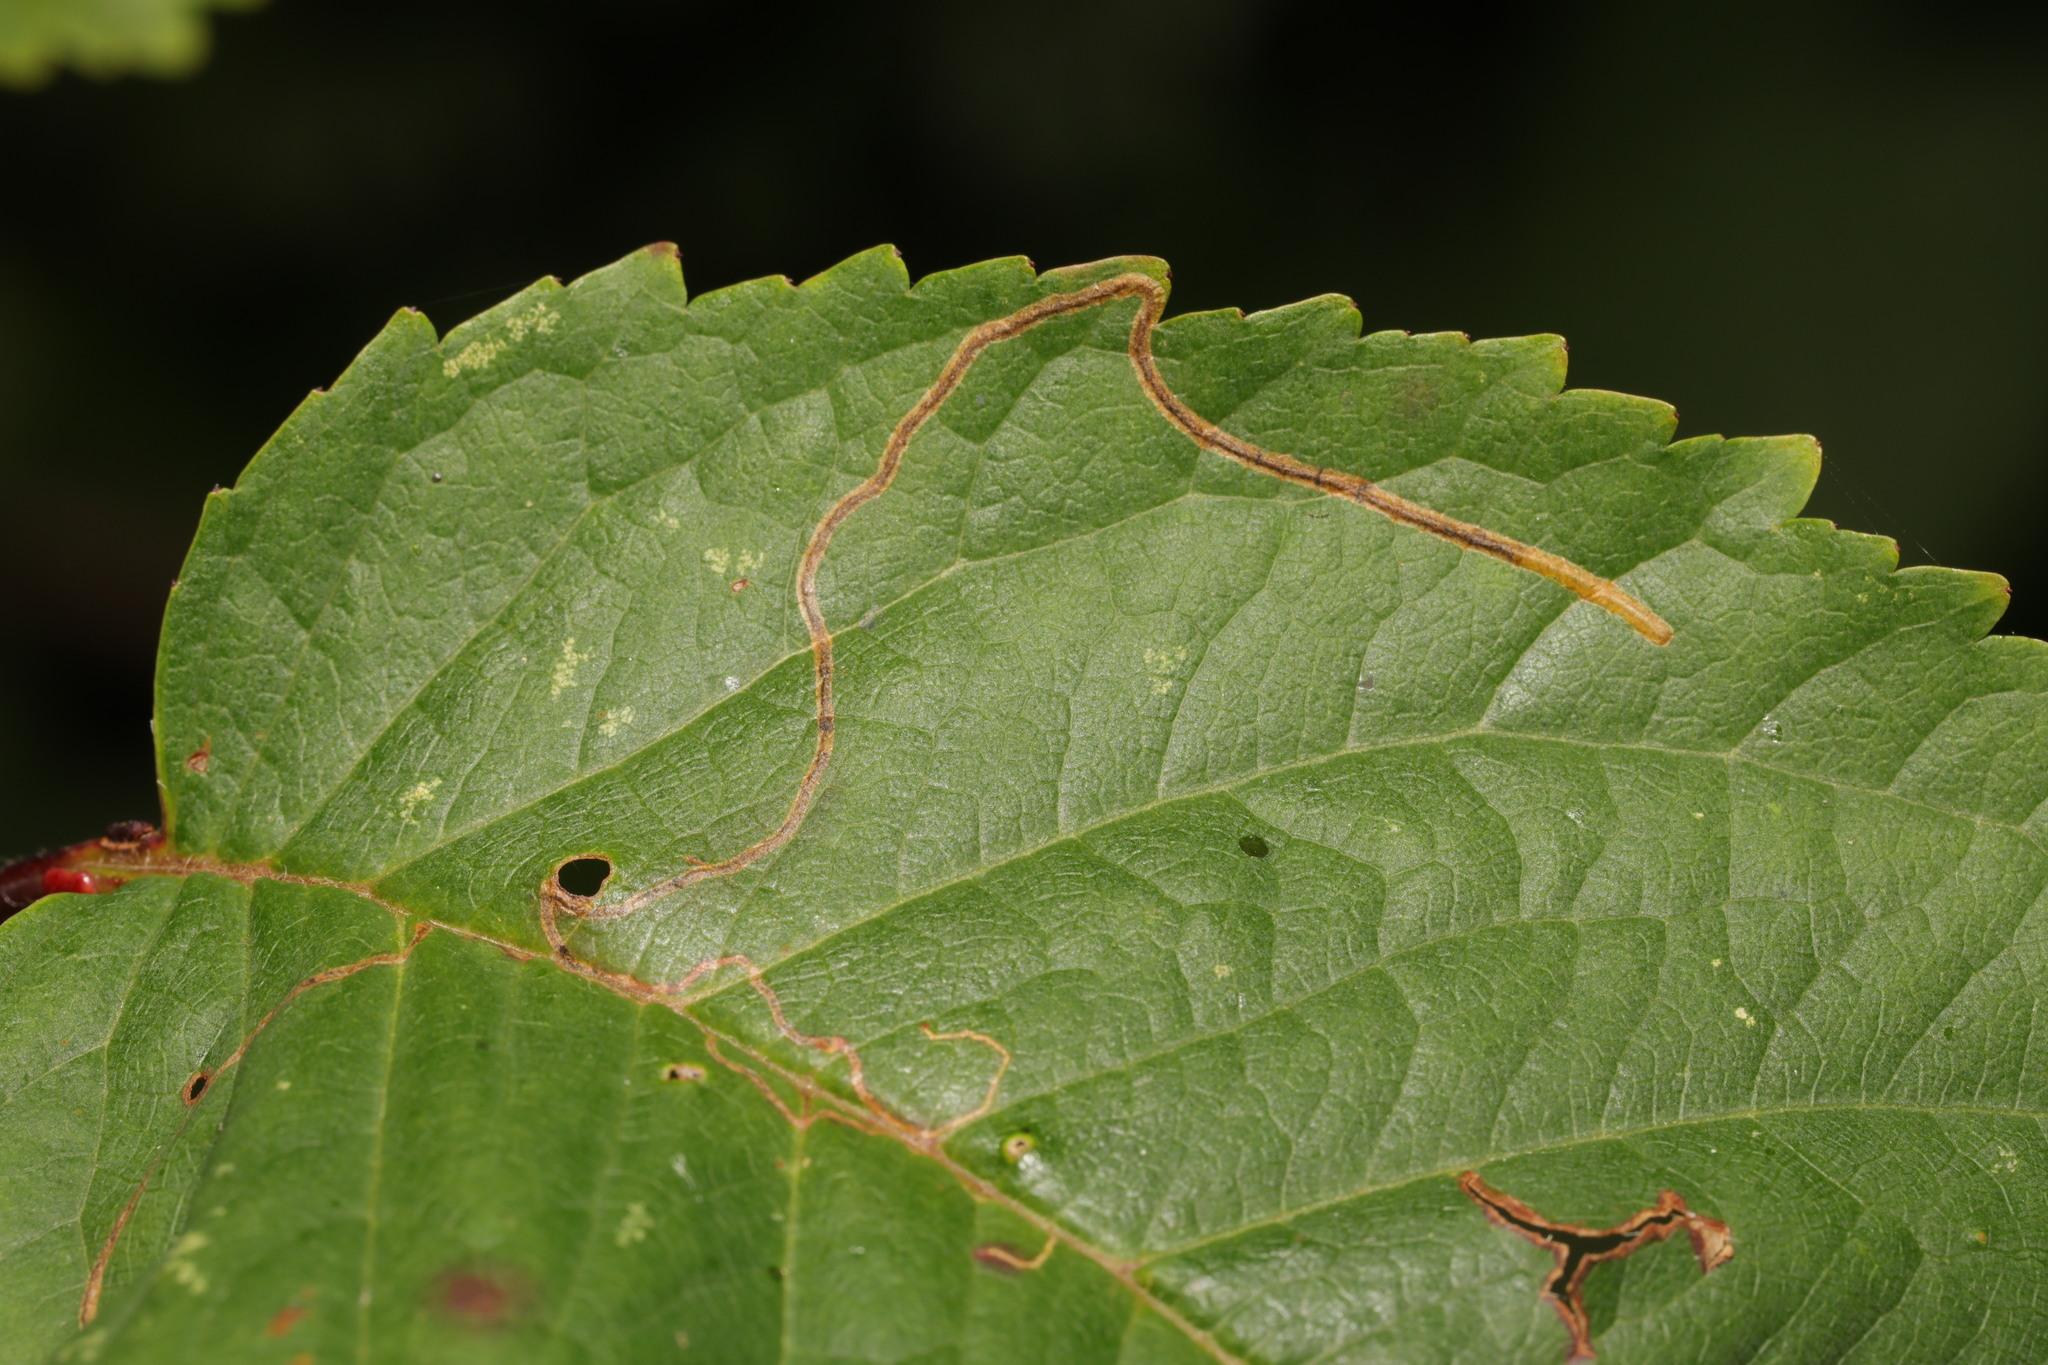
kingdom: Animalia
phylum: Arthropoda
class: Insecta
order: Lepidoptera
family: Lyonetiidae
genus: Lyonetia
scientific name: Lyonetia clerkella
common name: Apple leaf miner
